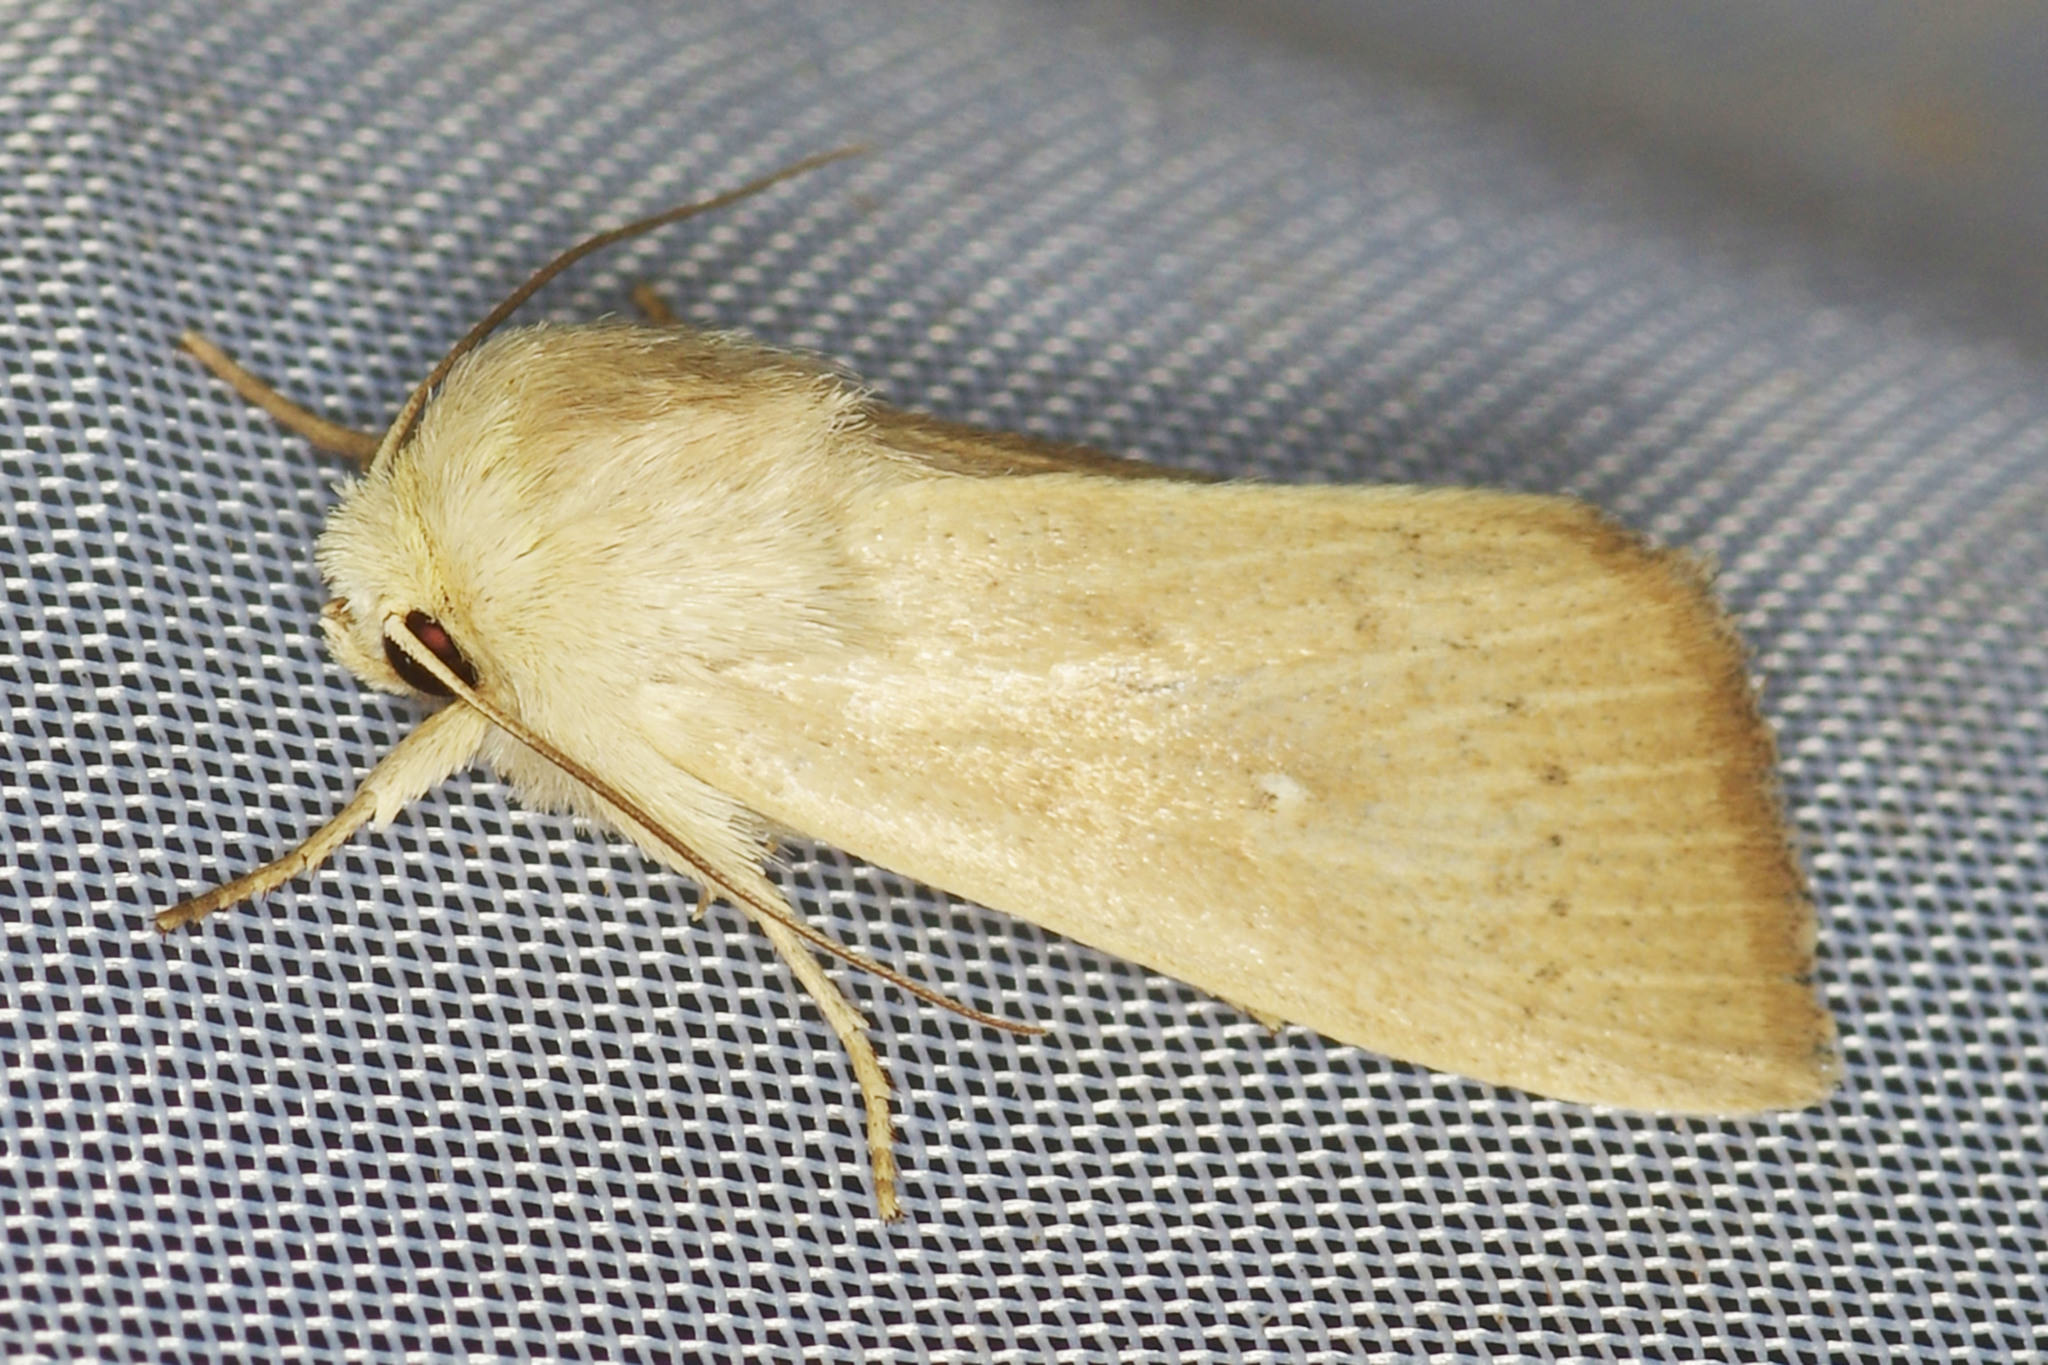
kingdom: Animalia
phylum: Arthropoda
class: Insecta
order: Lepidoptera
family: Noctuidae
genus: Mythimna
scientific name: Mythimna sicula
